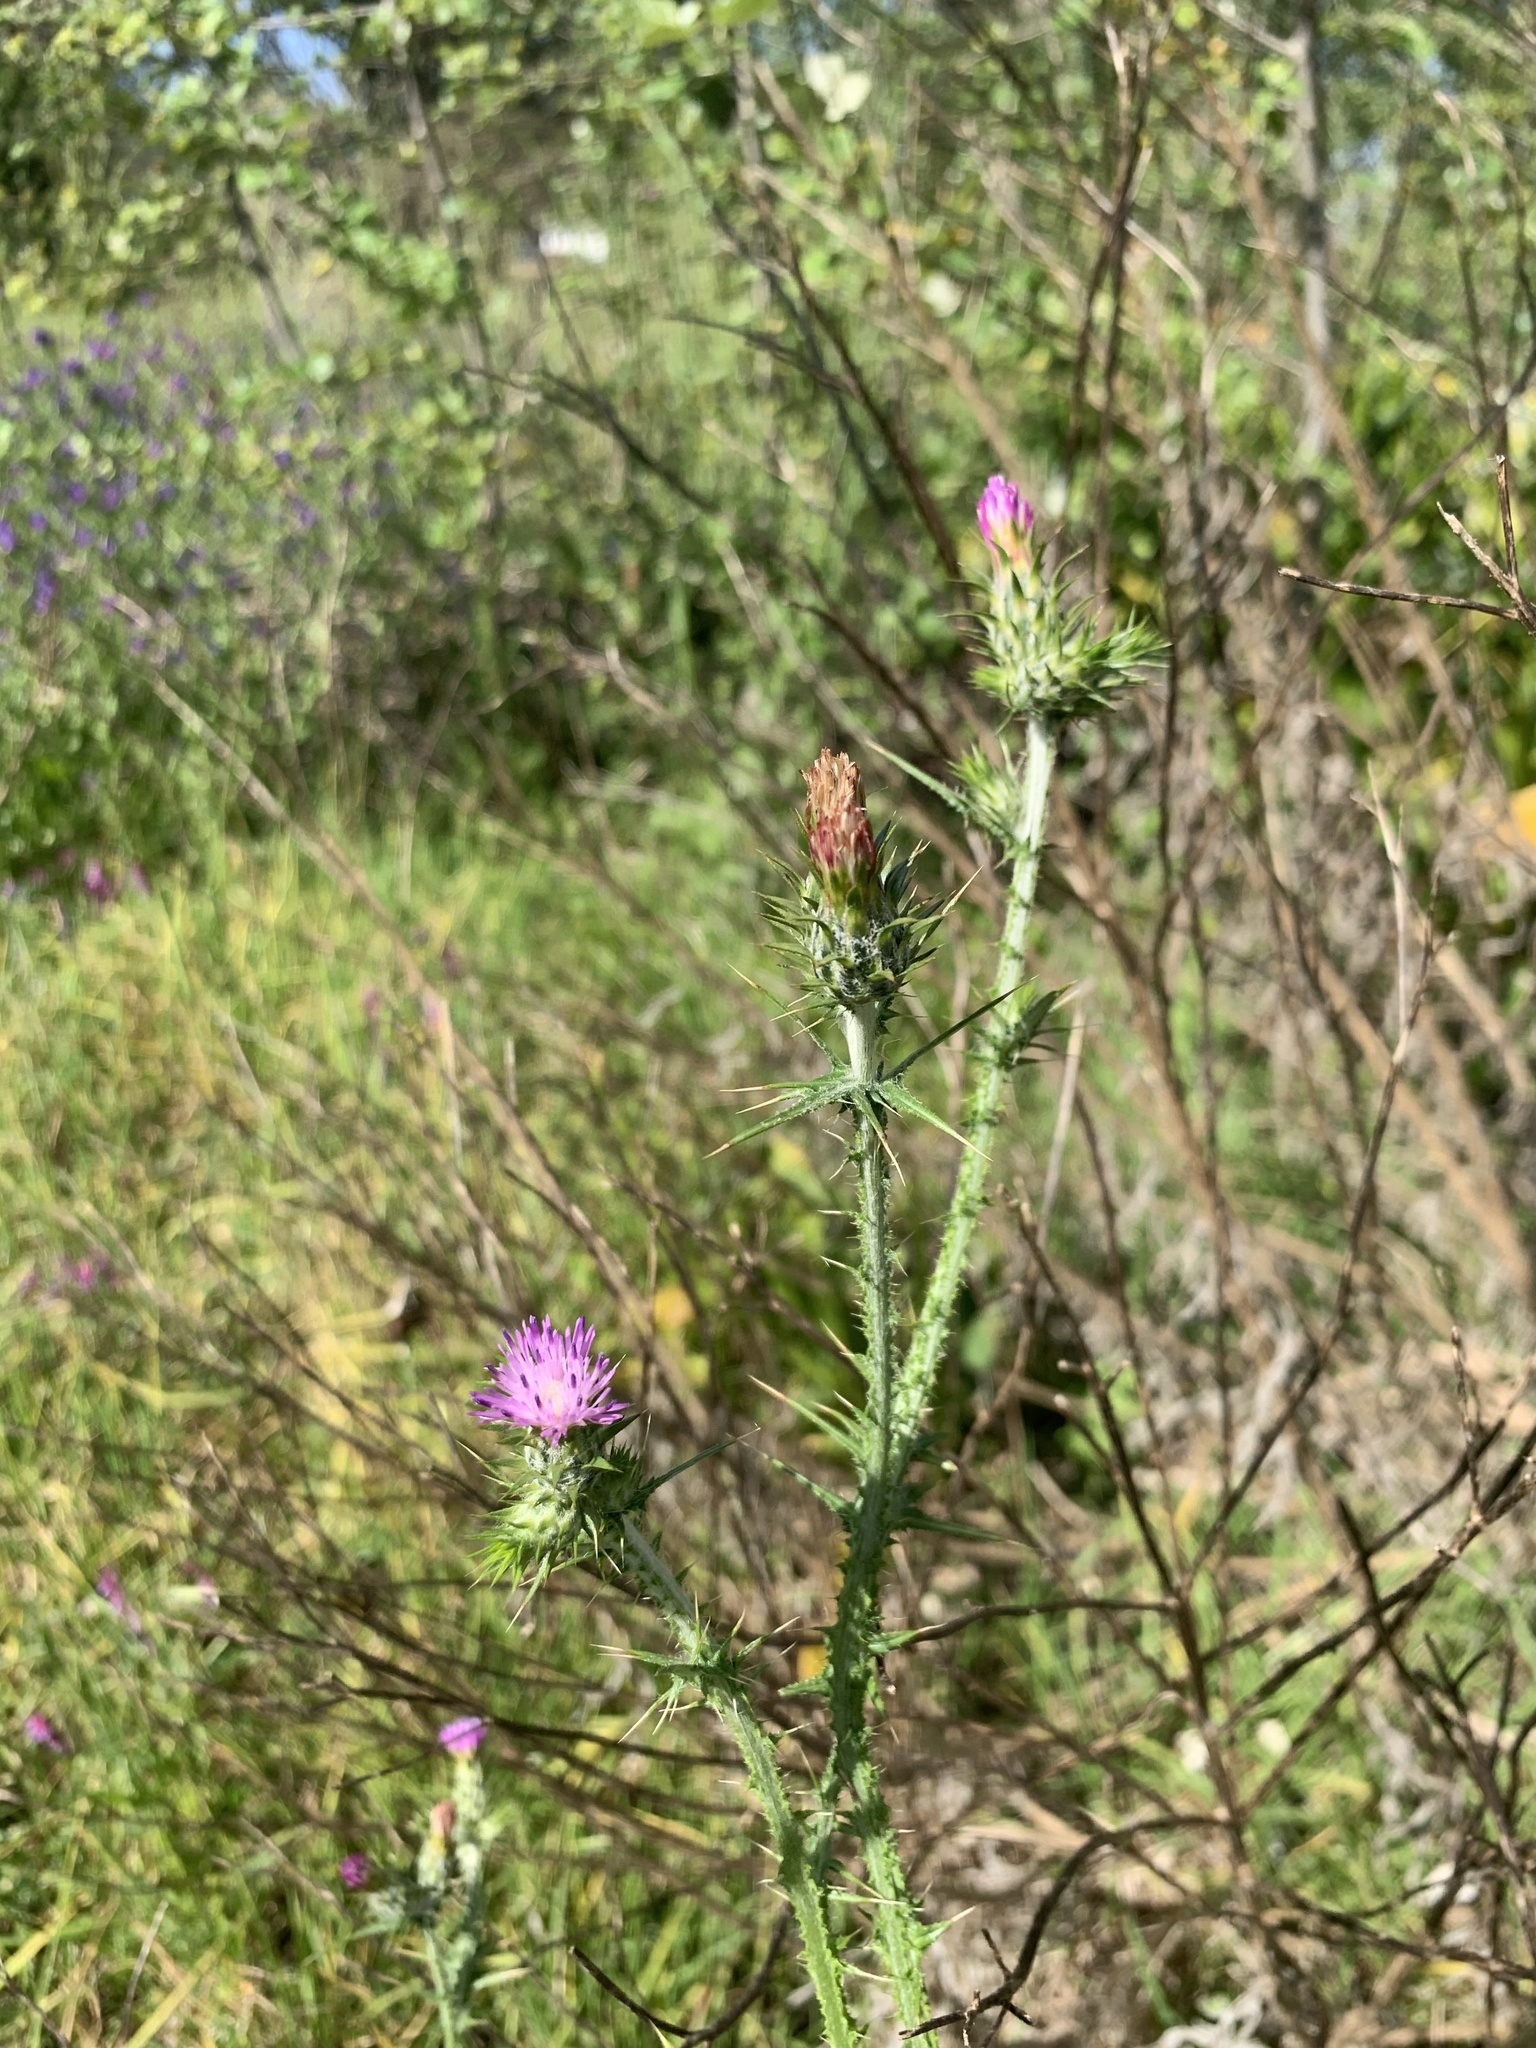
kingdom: Plantae
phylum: Tracheophyta
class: Magnoliopsida
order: Asterales
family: Asteraceae
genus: Carduus
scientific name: Carduus pycnocephalus
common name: Plymouth thistle
